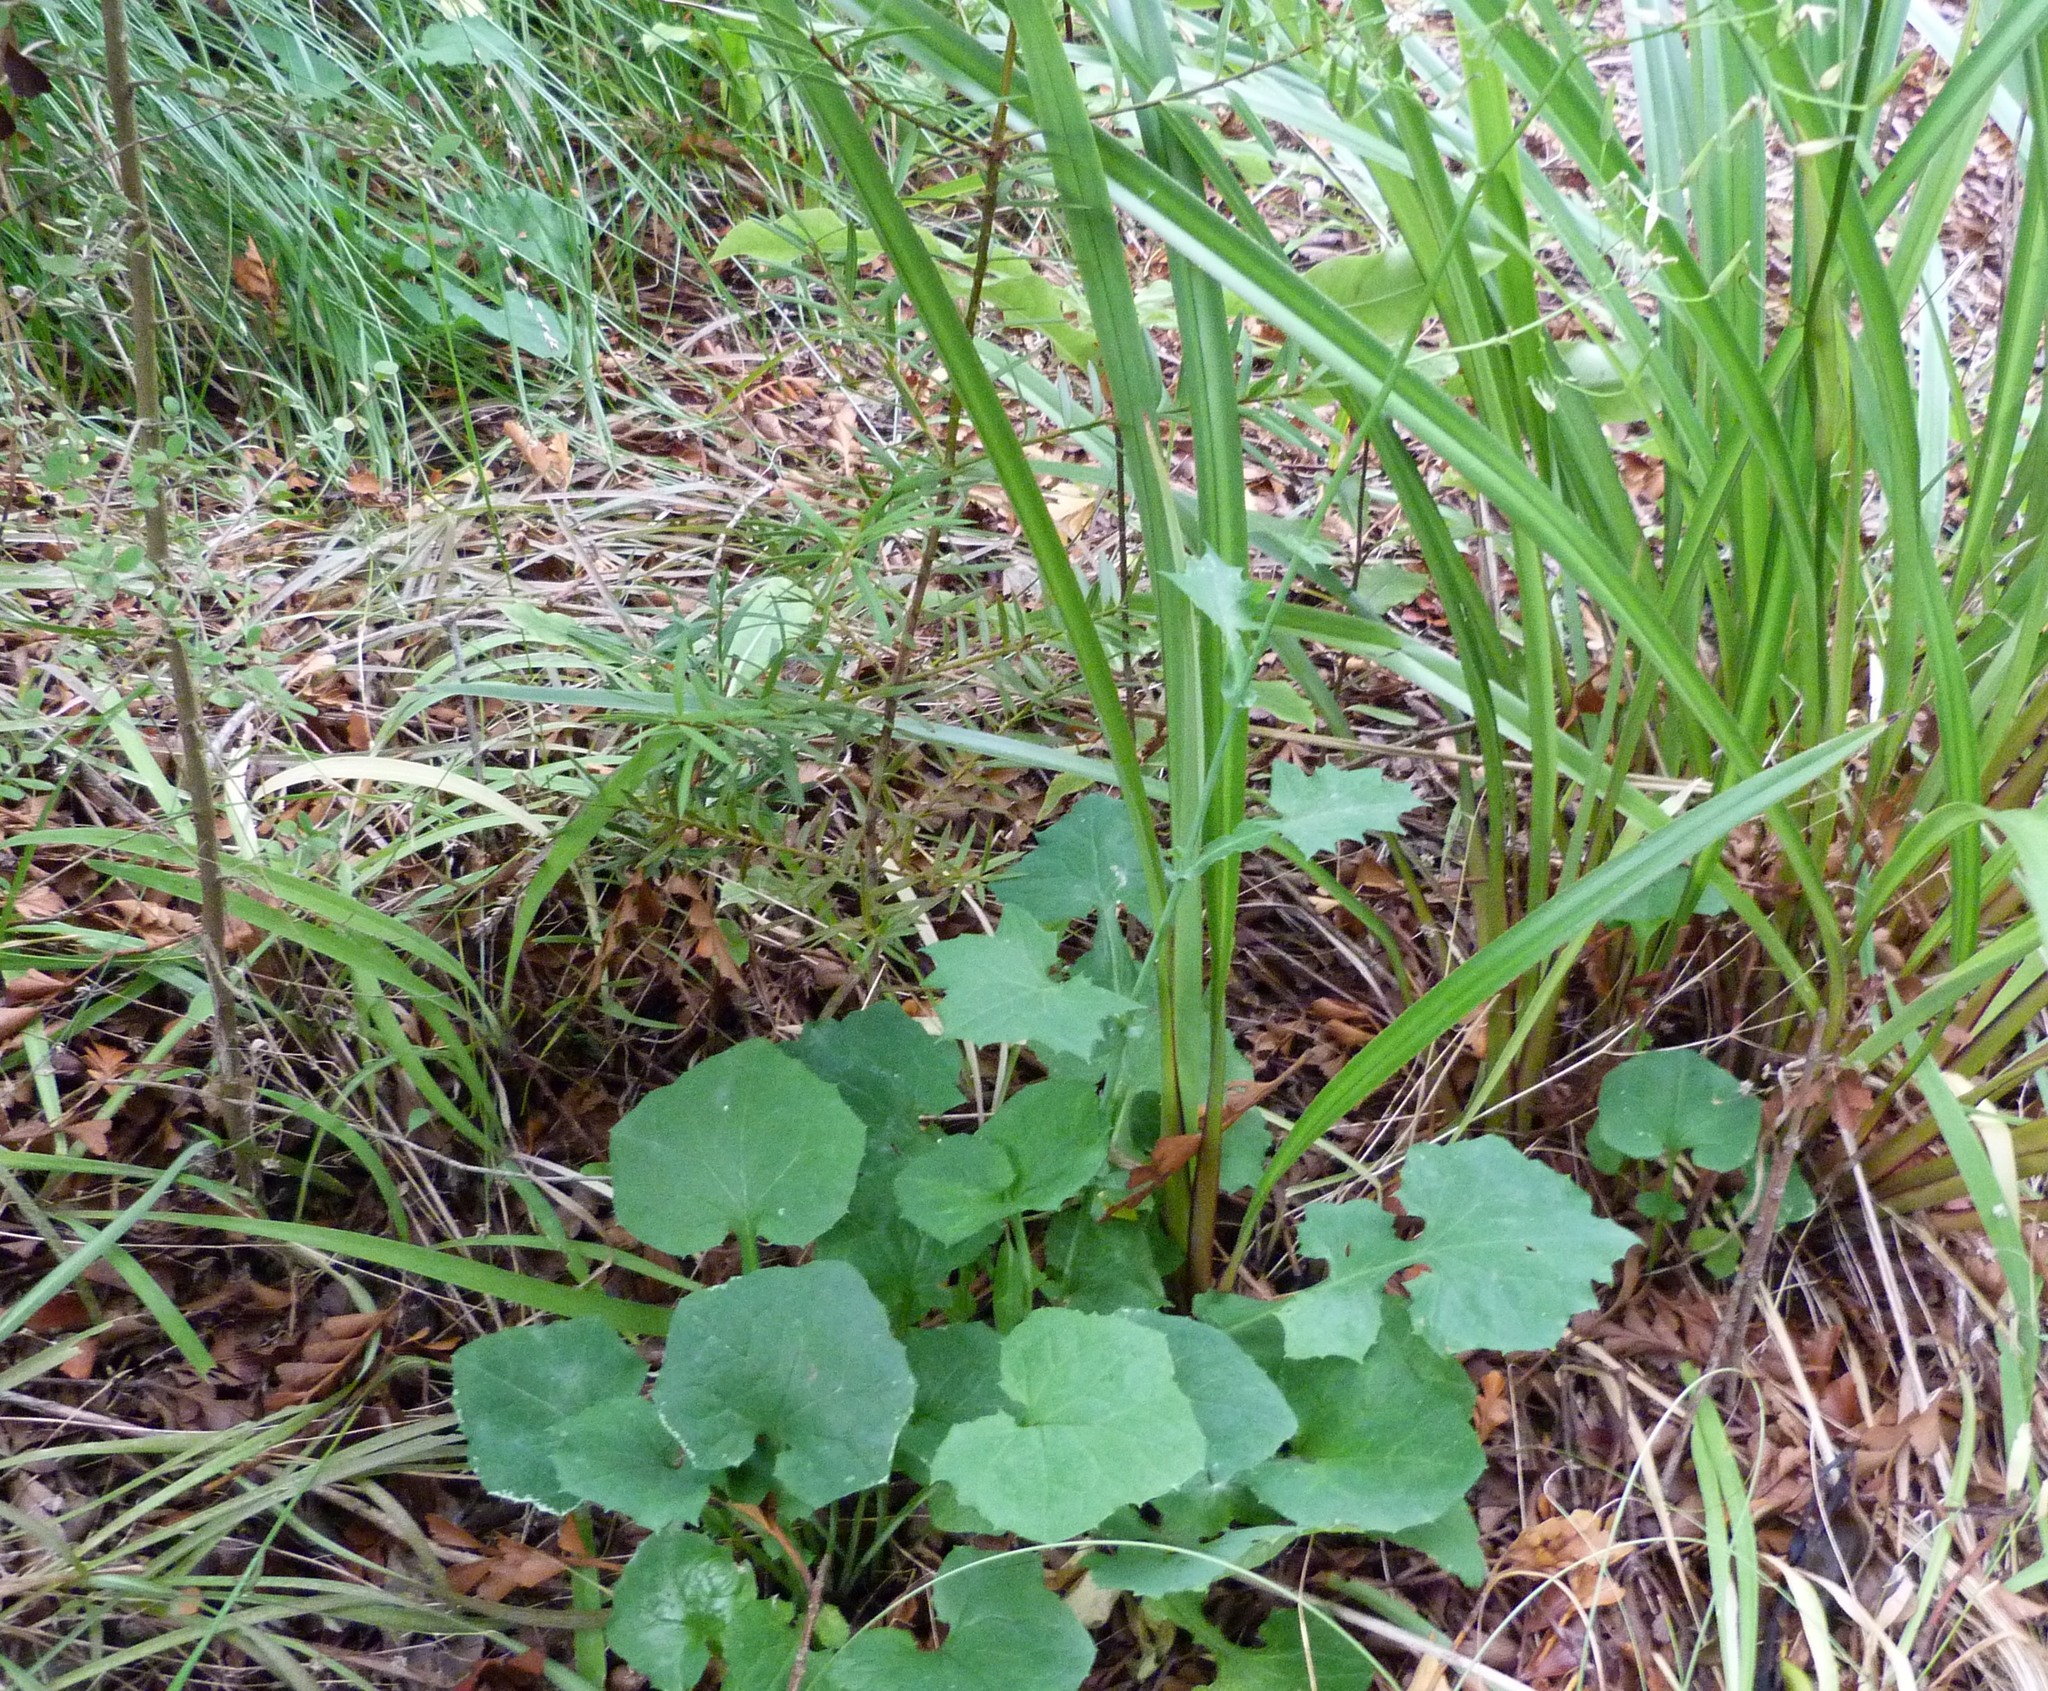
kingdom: Plantae
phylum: Tracheophyta
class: Magnoliopsida
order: Asterales
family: Asteraceae
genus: Mycelis
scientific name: Mycelis muralis
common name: Wall lettuce
